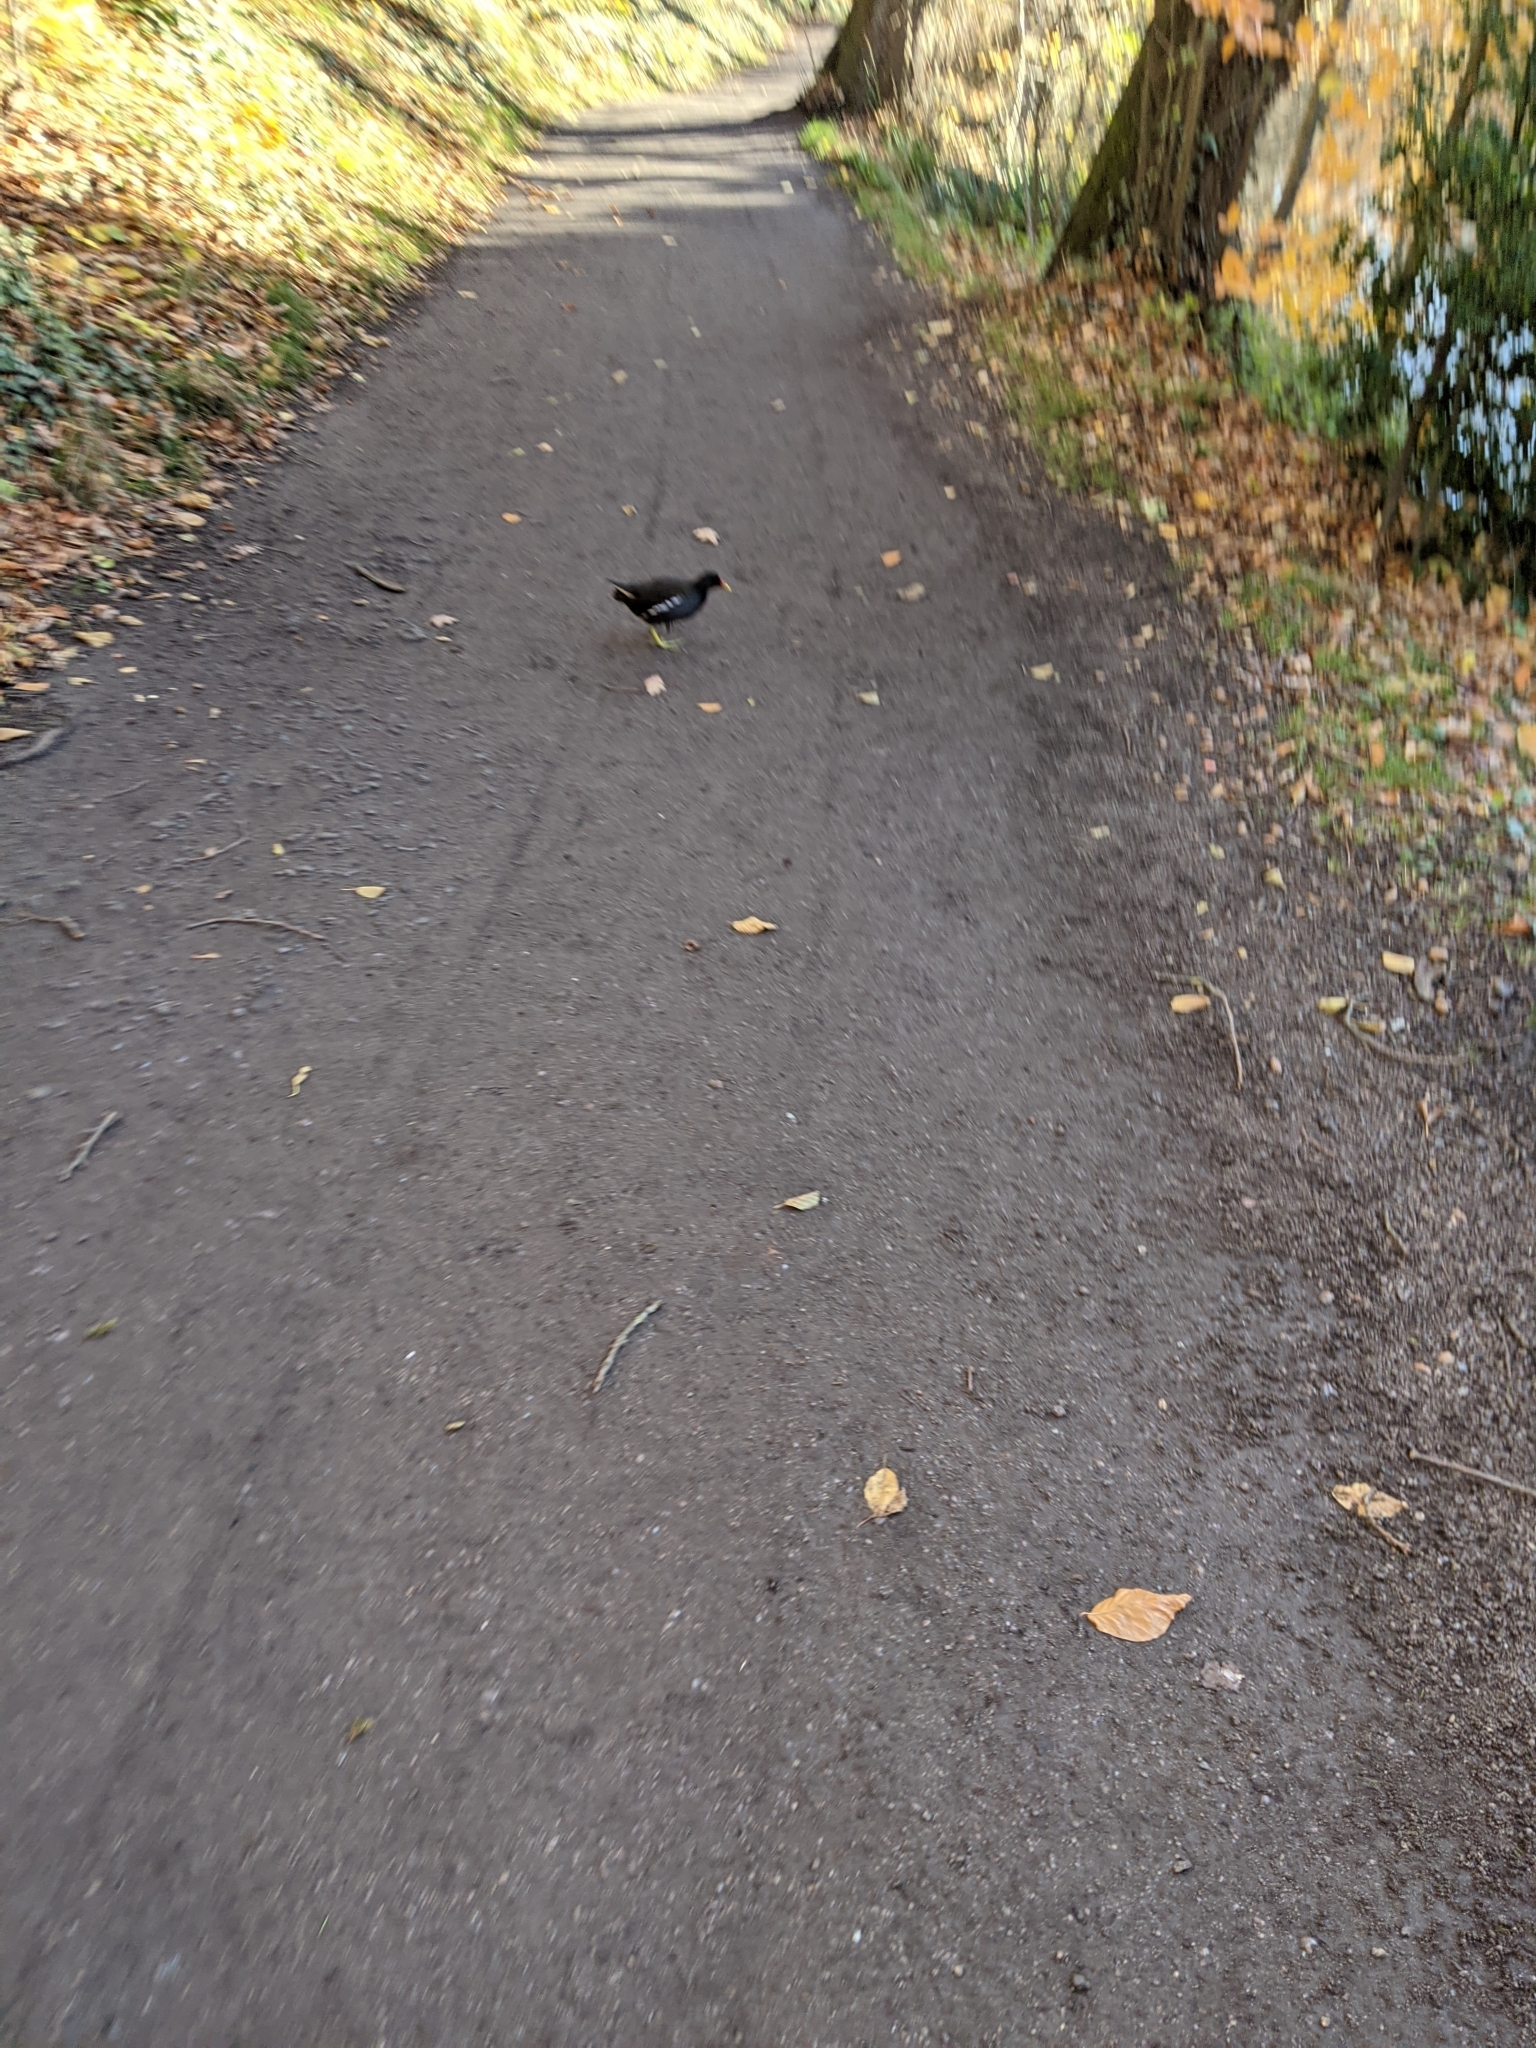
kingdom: Animalia
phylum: Chordata
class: Aves
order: Gruiformes
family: Rallidae
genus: Gallinula
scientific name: Gallinula chloropus
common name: Common moorhen
